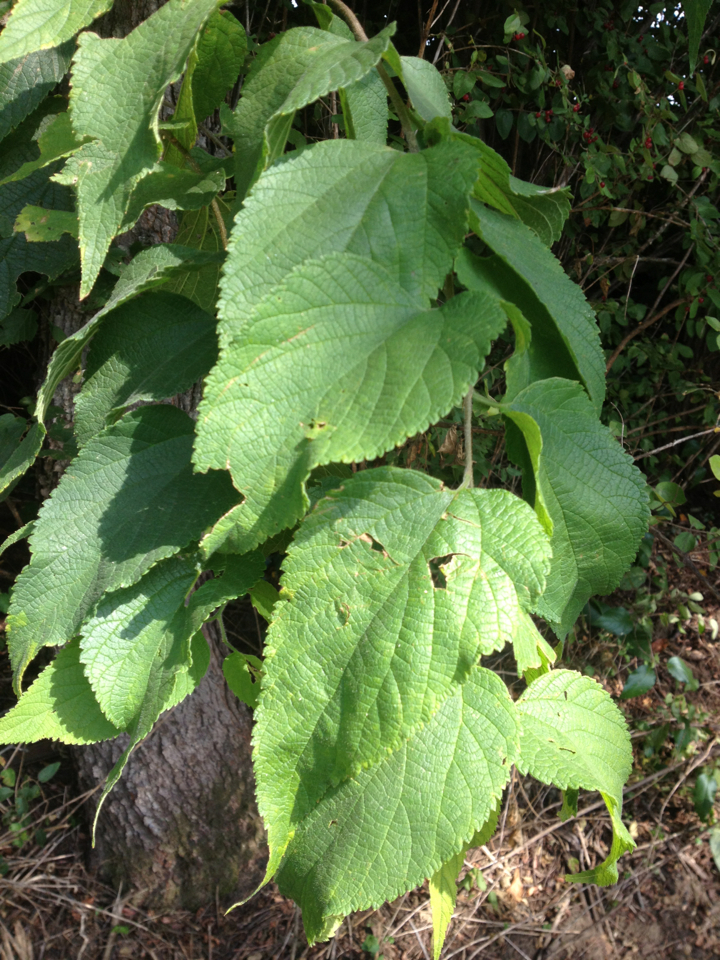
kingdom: Plantae
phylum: Tracheophyta
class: Magnoliopsida
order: Rosales
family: Cannabaceae
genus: Celtis
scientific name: Celtis occidentalis
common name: Common hackberry
